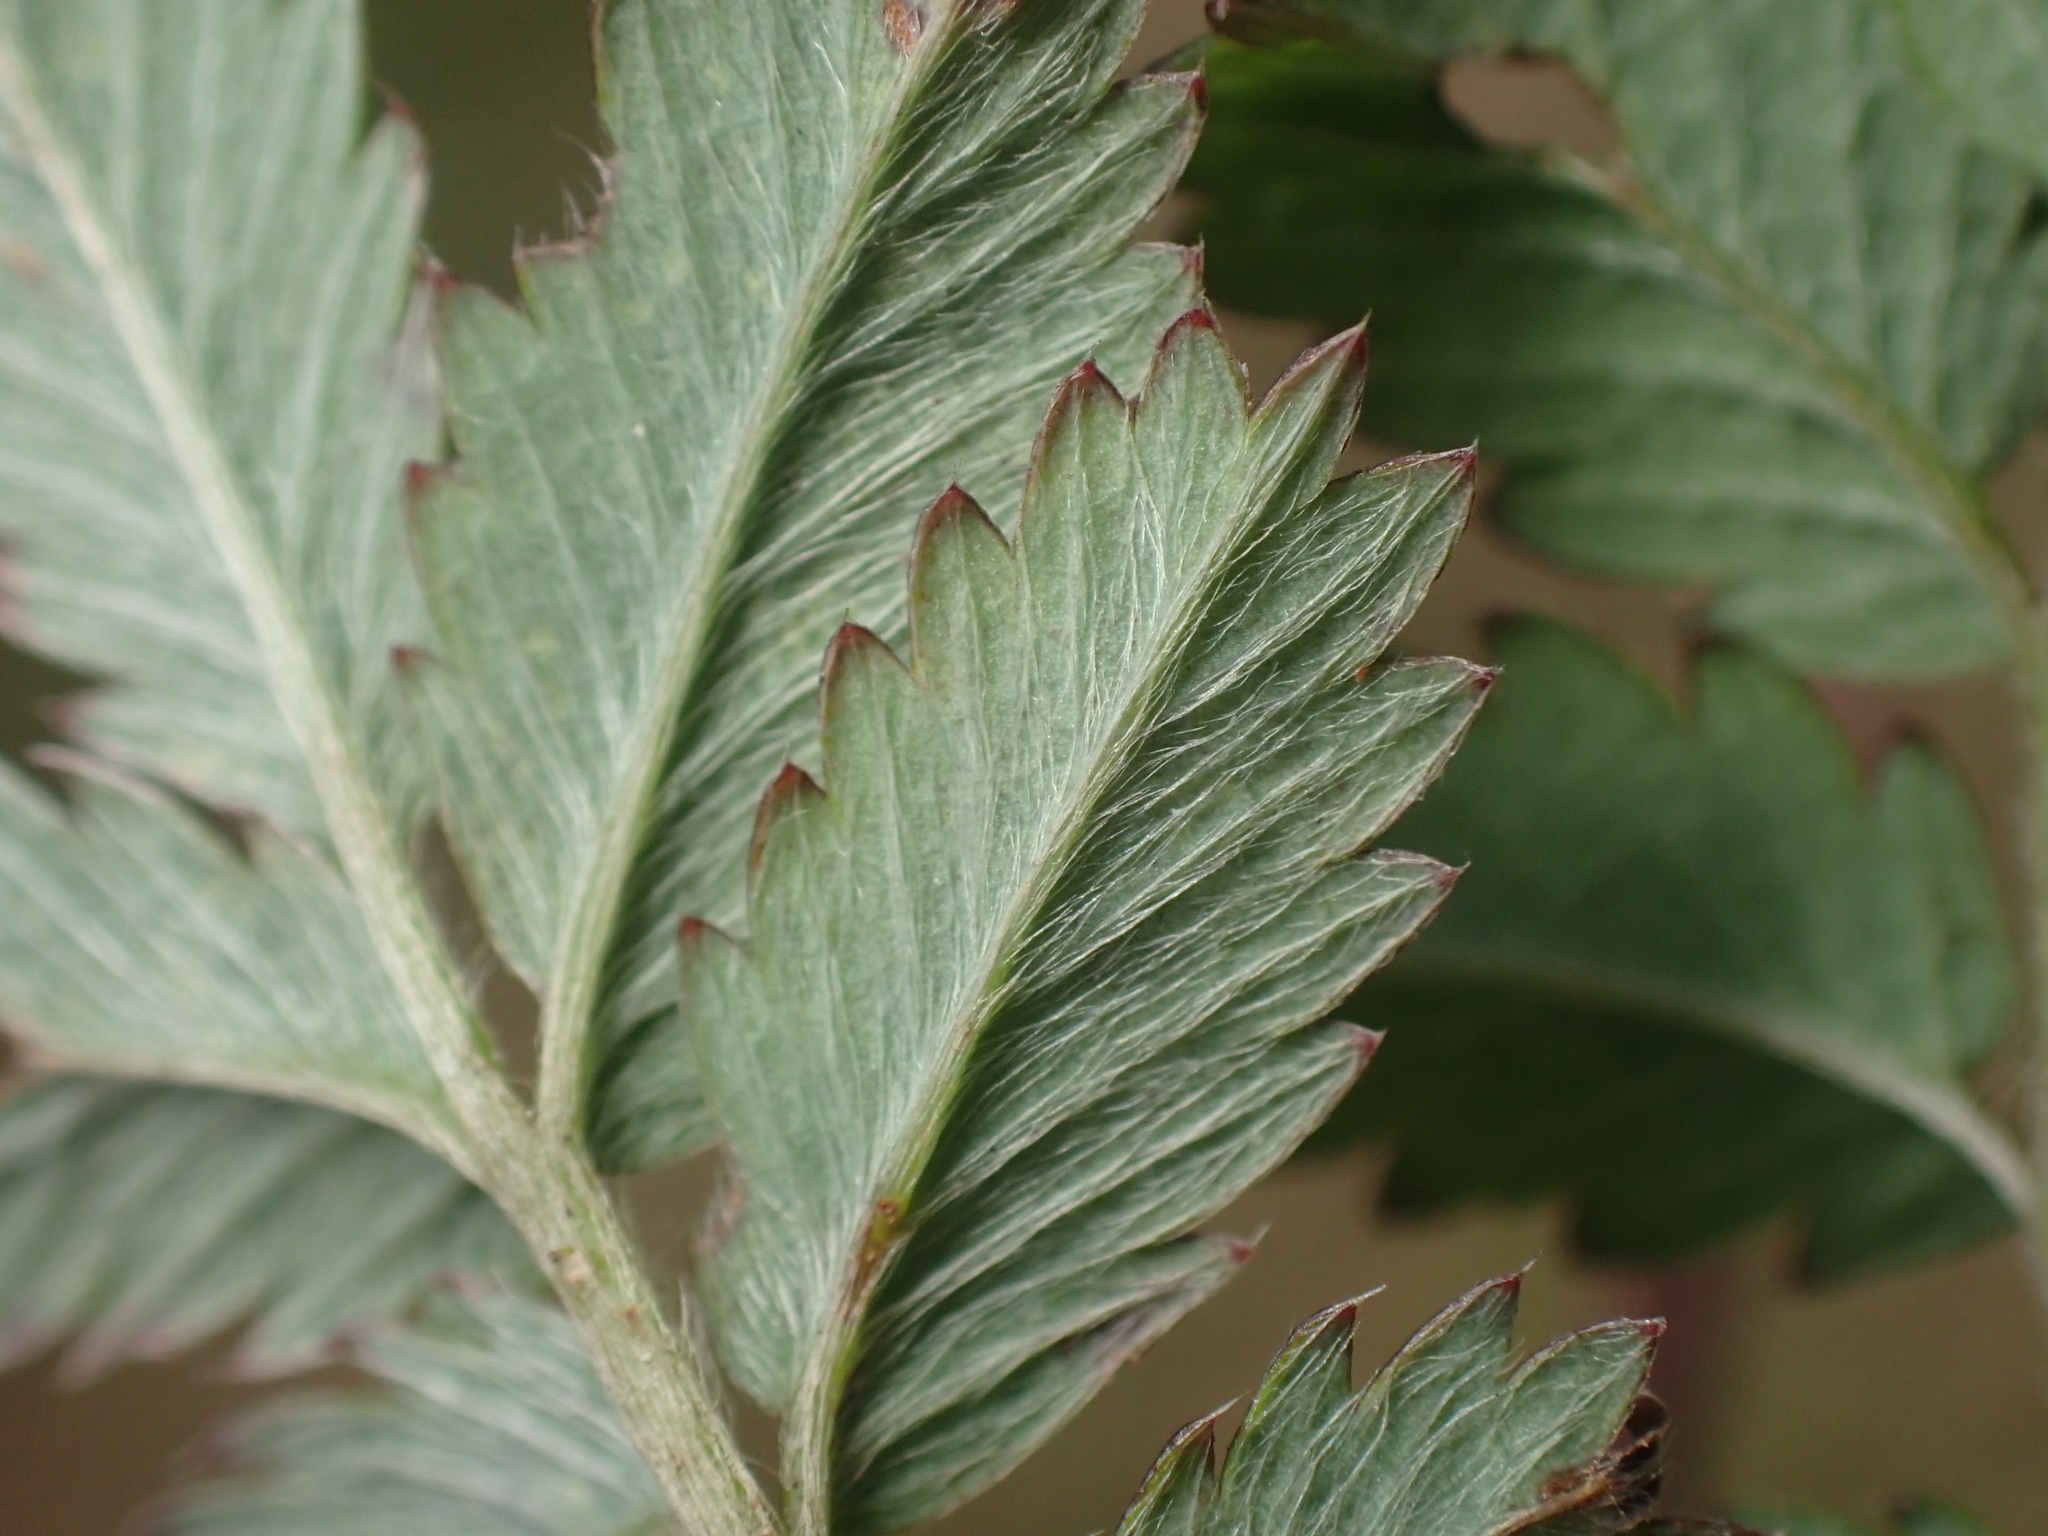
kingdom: Plantae
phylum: Tracheophyta
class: Magnoliopsida
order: Rosales
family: Rosaceae
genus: Acaena
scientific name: Acaena novae-zelandiae
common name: Pirri-pirri-bur
